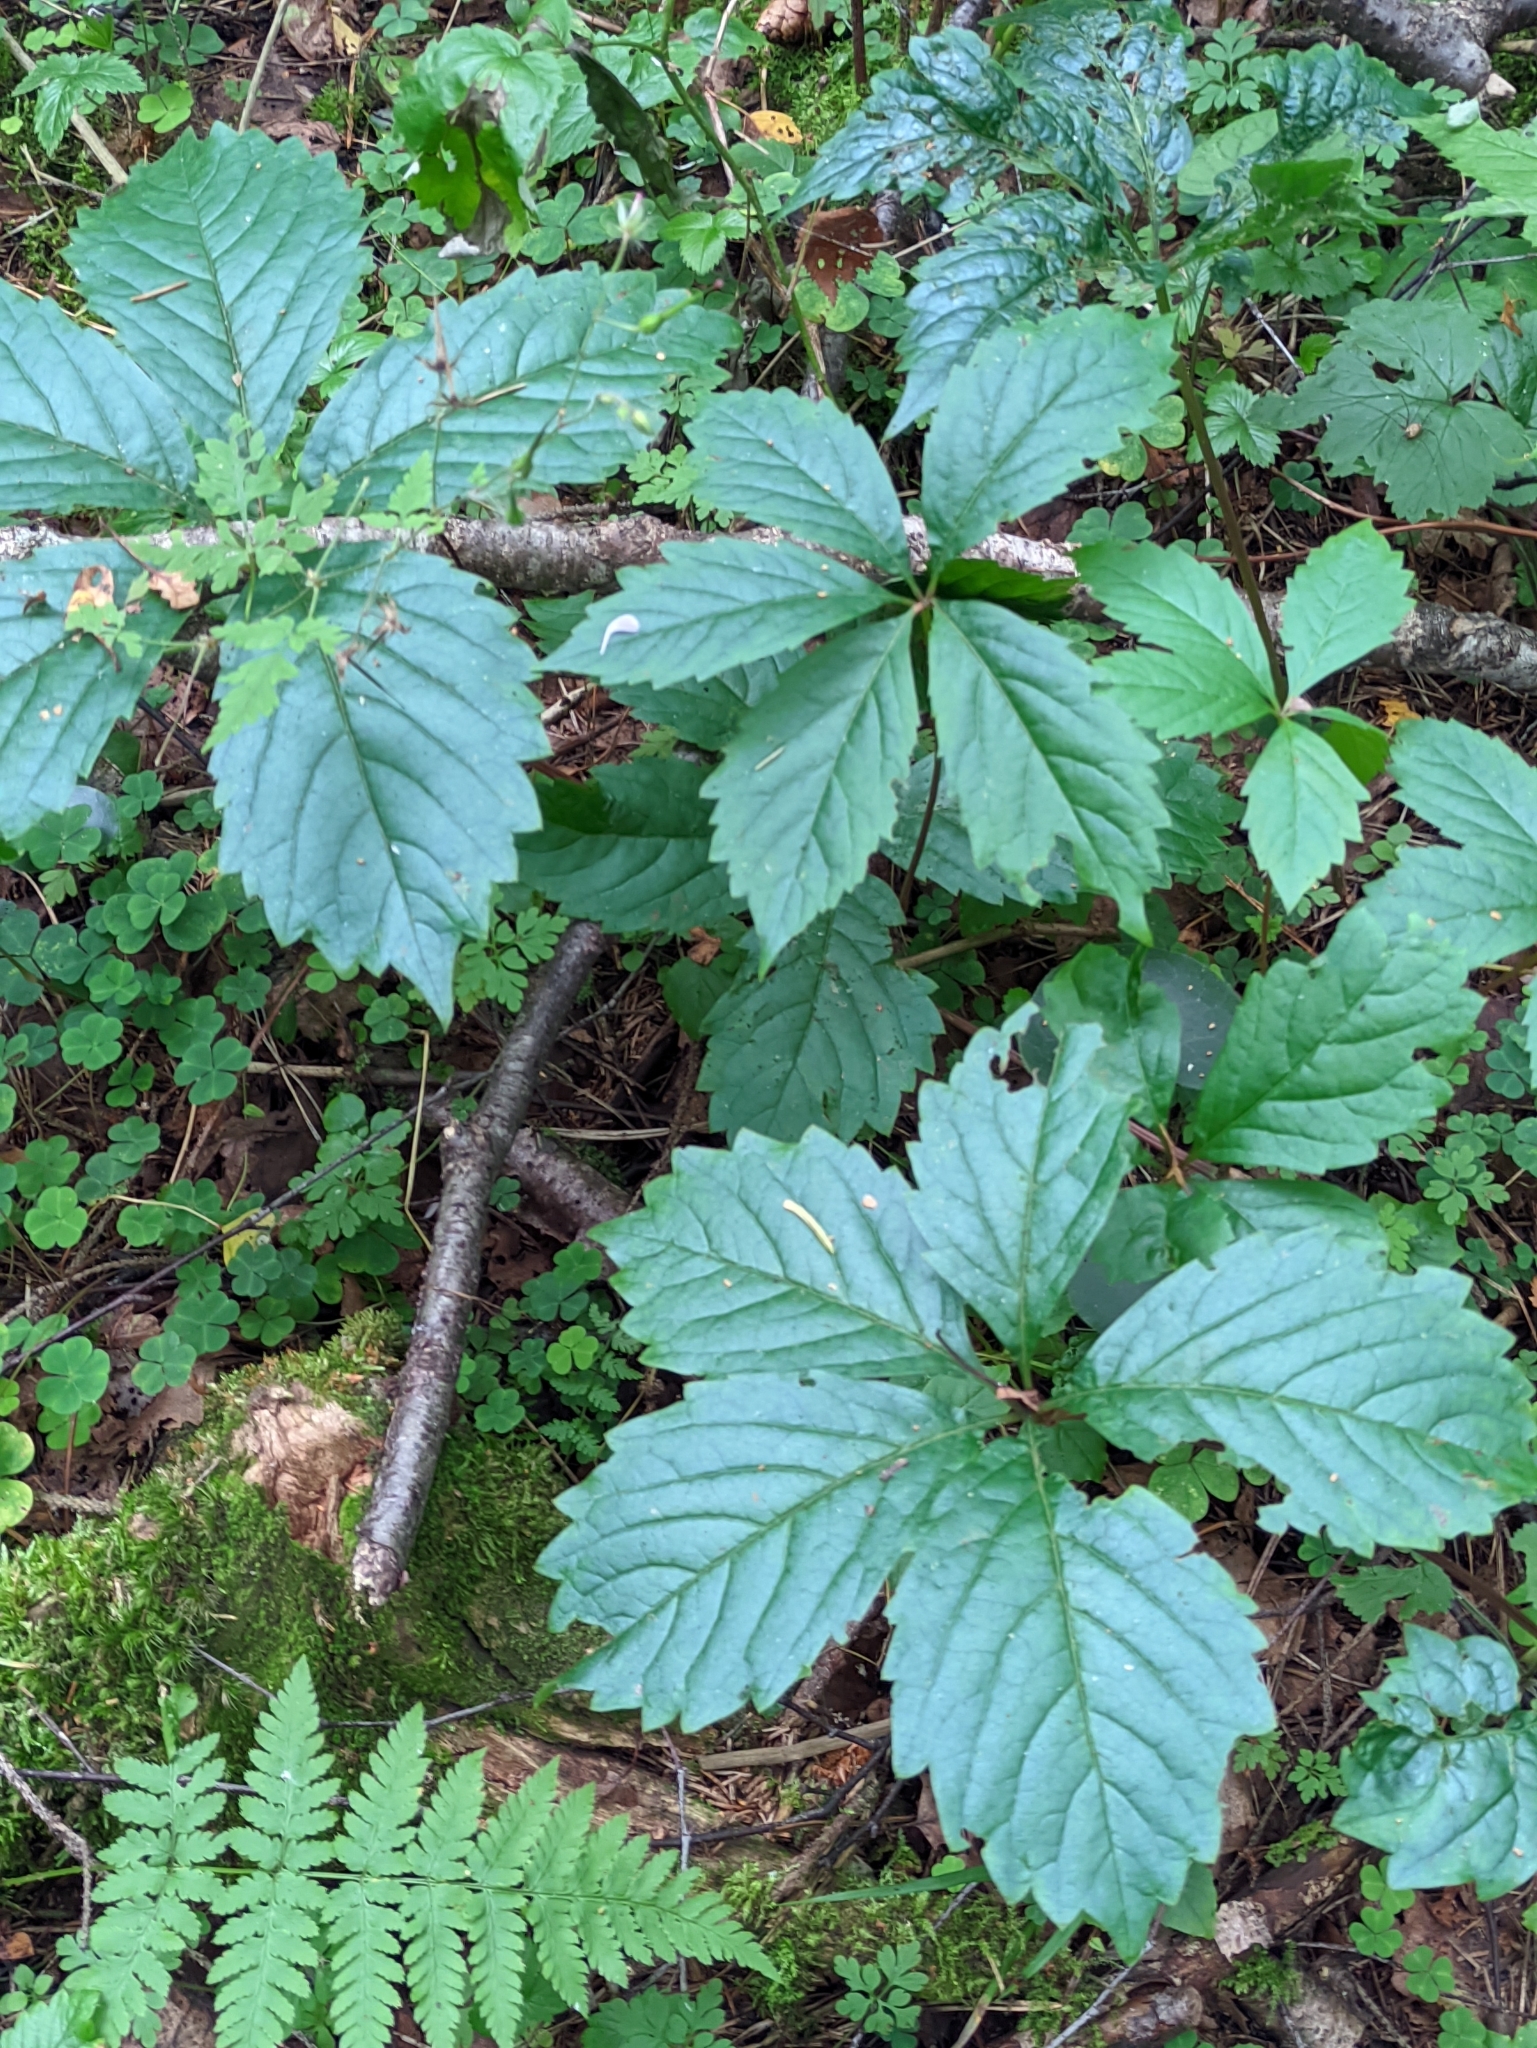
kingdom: Plantae
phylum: Tracheophyta
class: Magnoliopsida
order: Vitales
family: Vitaceae
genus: Parthenocissus
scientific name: Parthenocissus inserta
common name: False virginia-creeper
